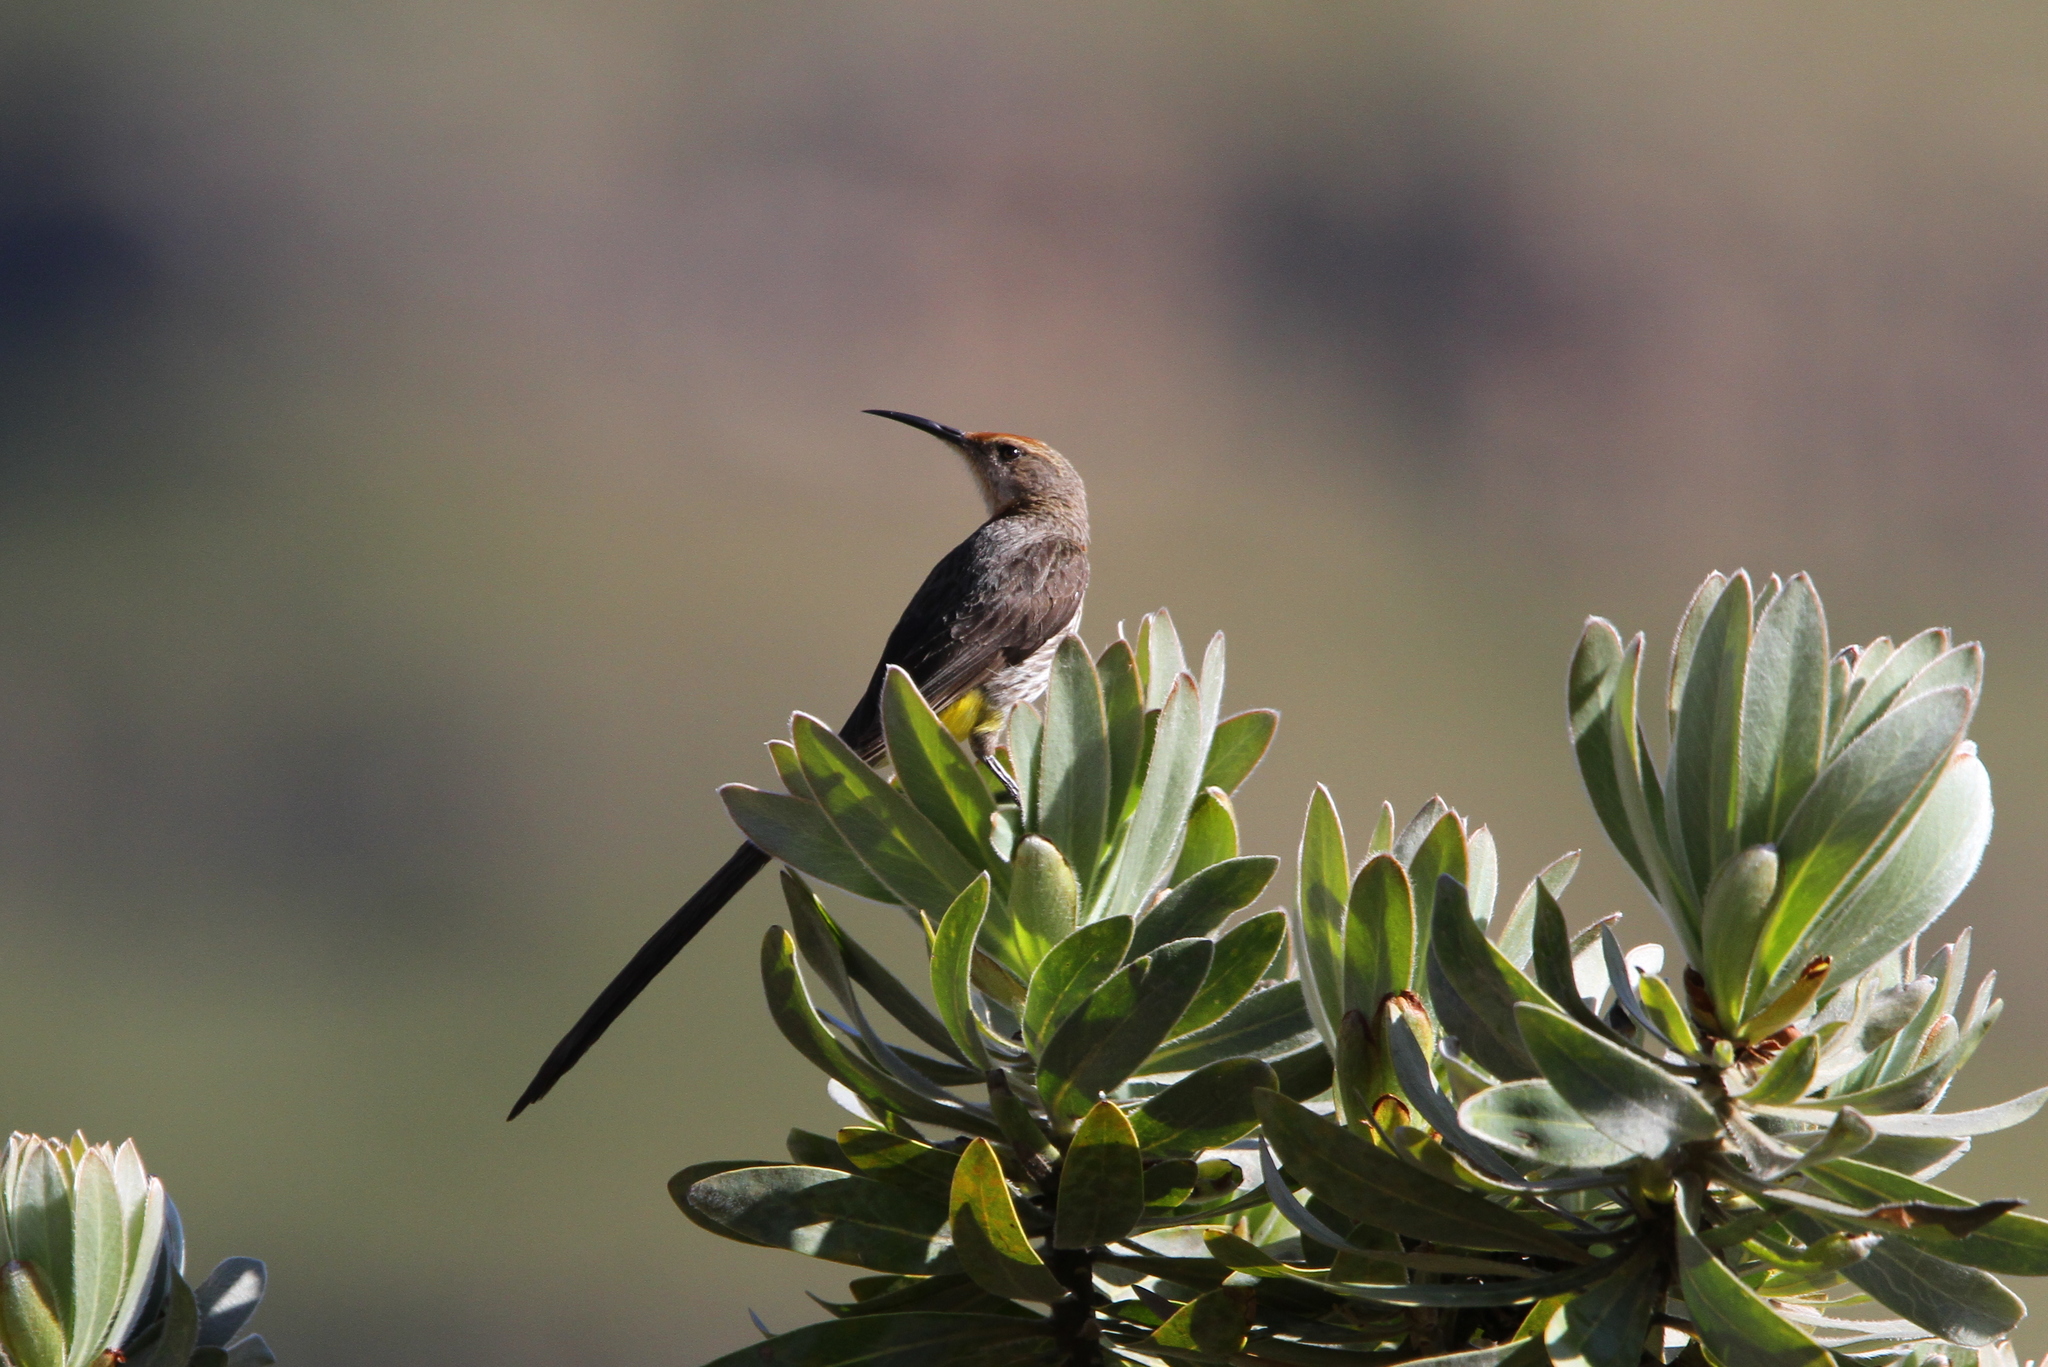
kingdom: Animalia
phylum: Chordata
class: Aves
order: Passeriformes
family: Promeropidae
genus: Promerops
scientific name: Promerops gurneyi
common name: Gurney's sugarbird
